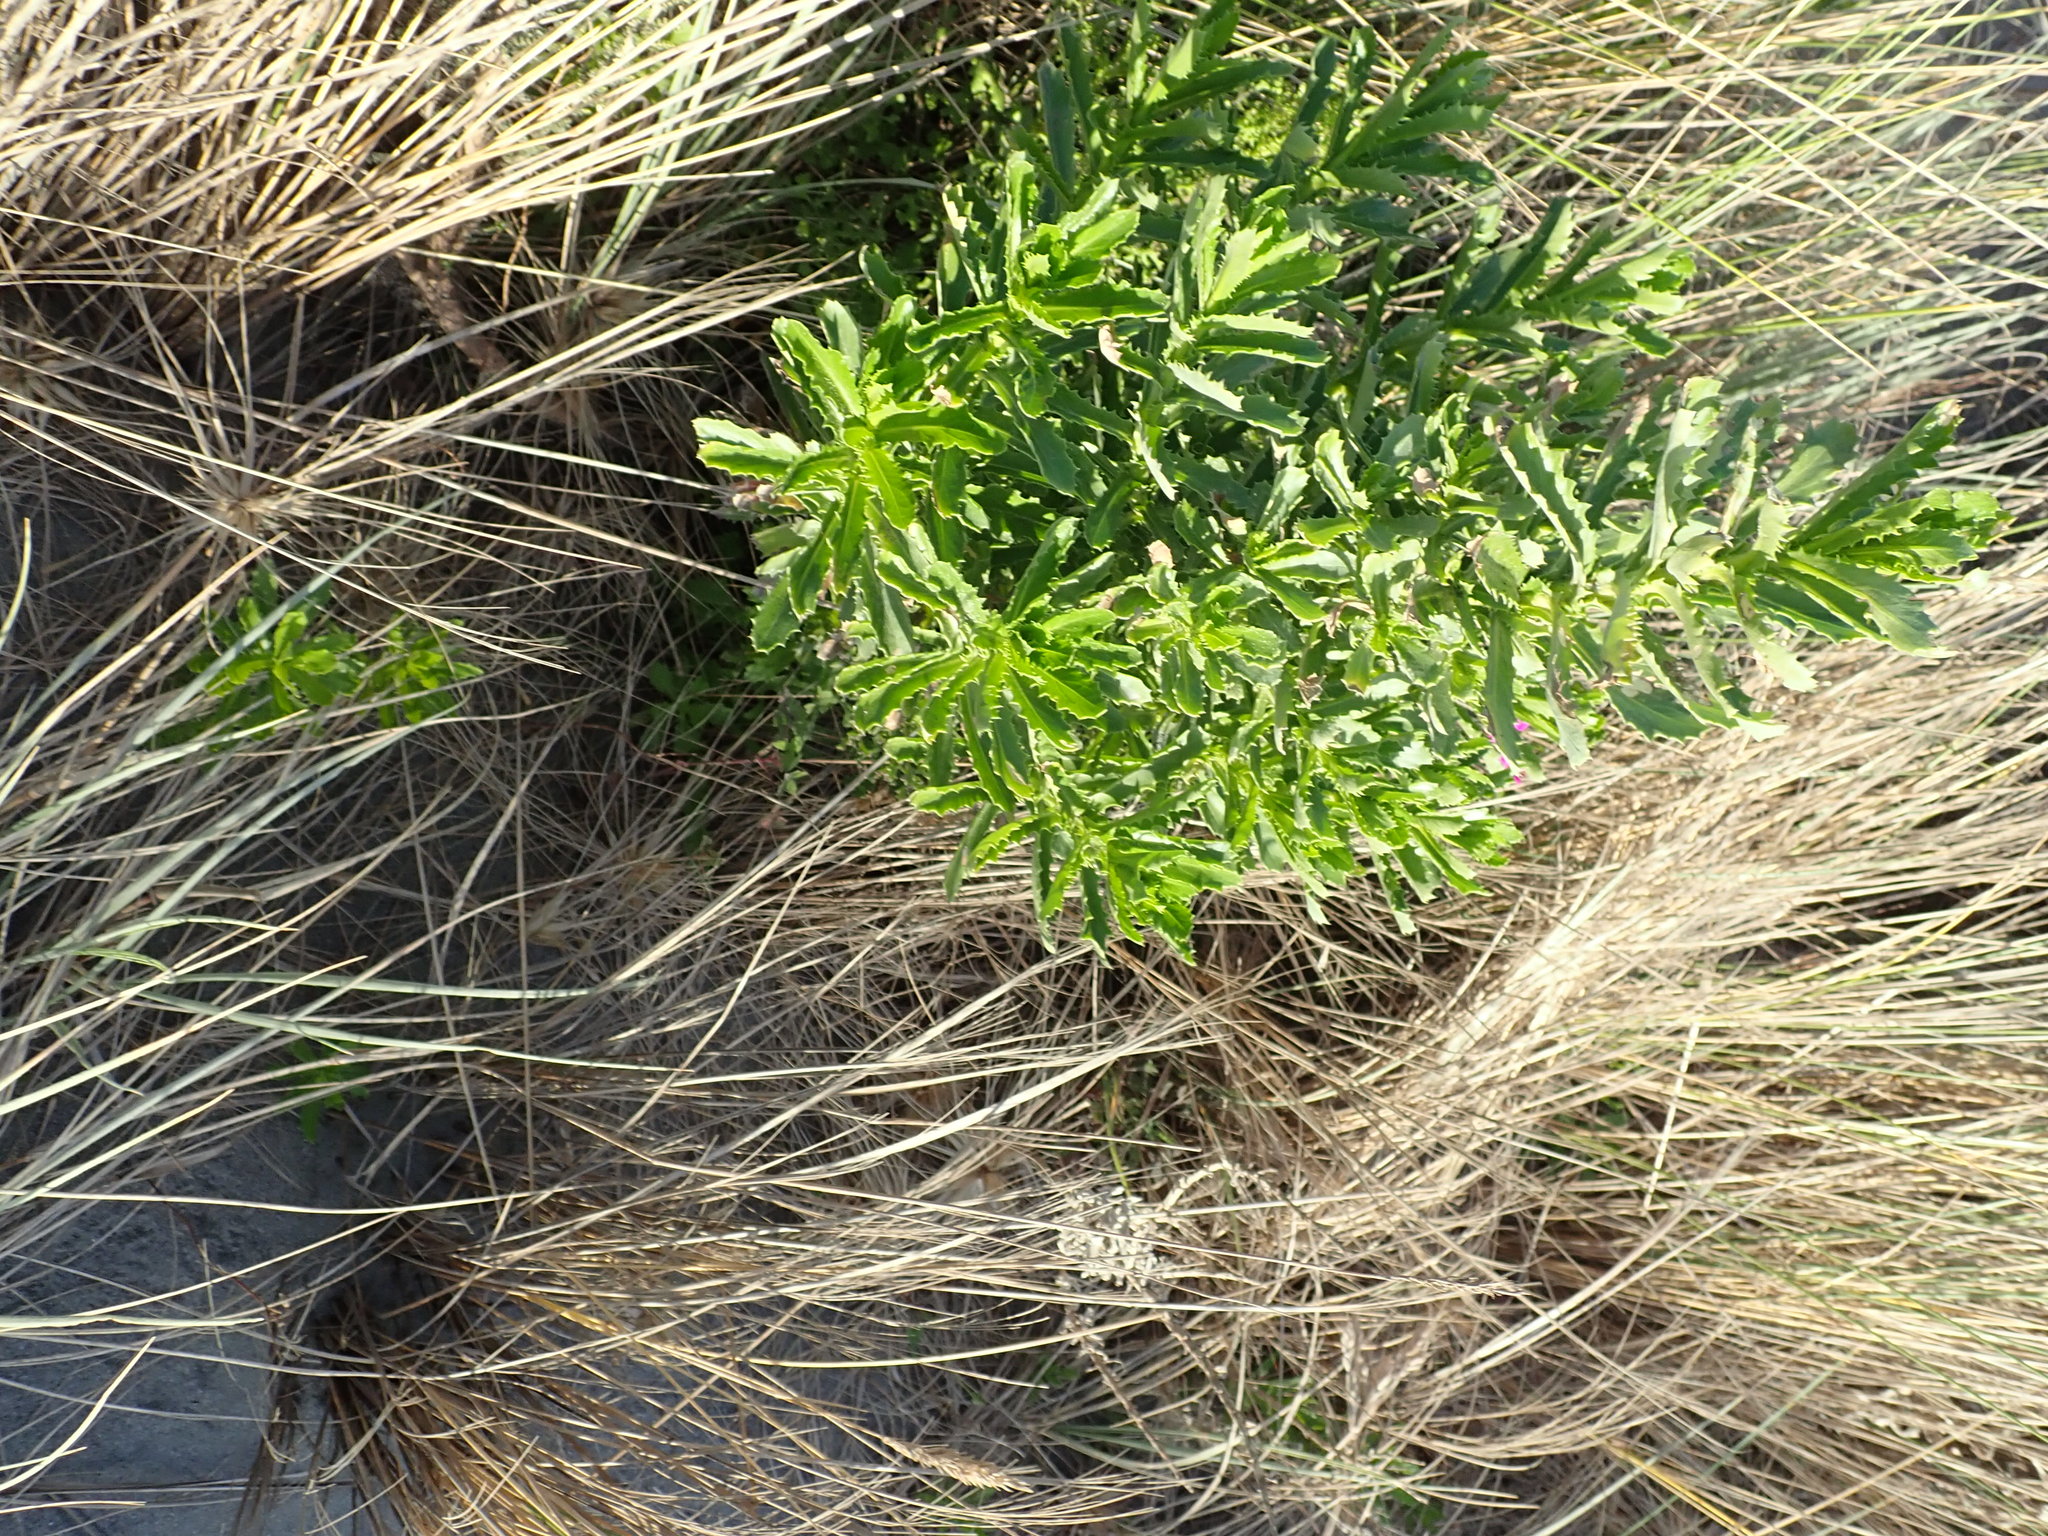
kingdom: Plantae
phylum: Tracheophyta
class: Magnoliopsida
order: Asterales
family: Asteraceae
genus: Senecio
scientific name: Senecio glastifolius
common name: Woad-leaved ragwort
